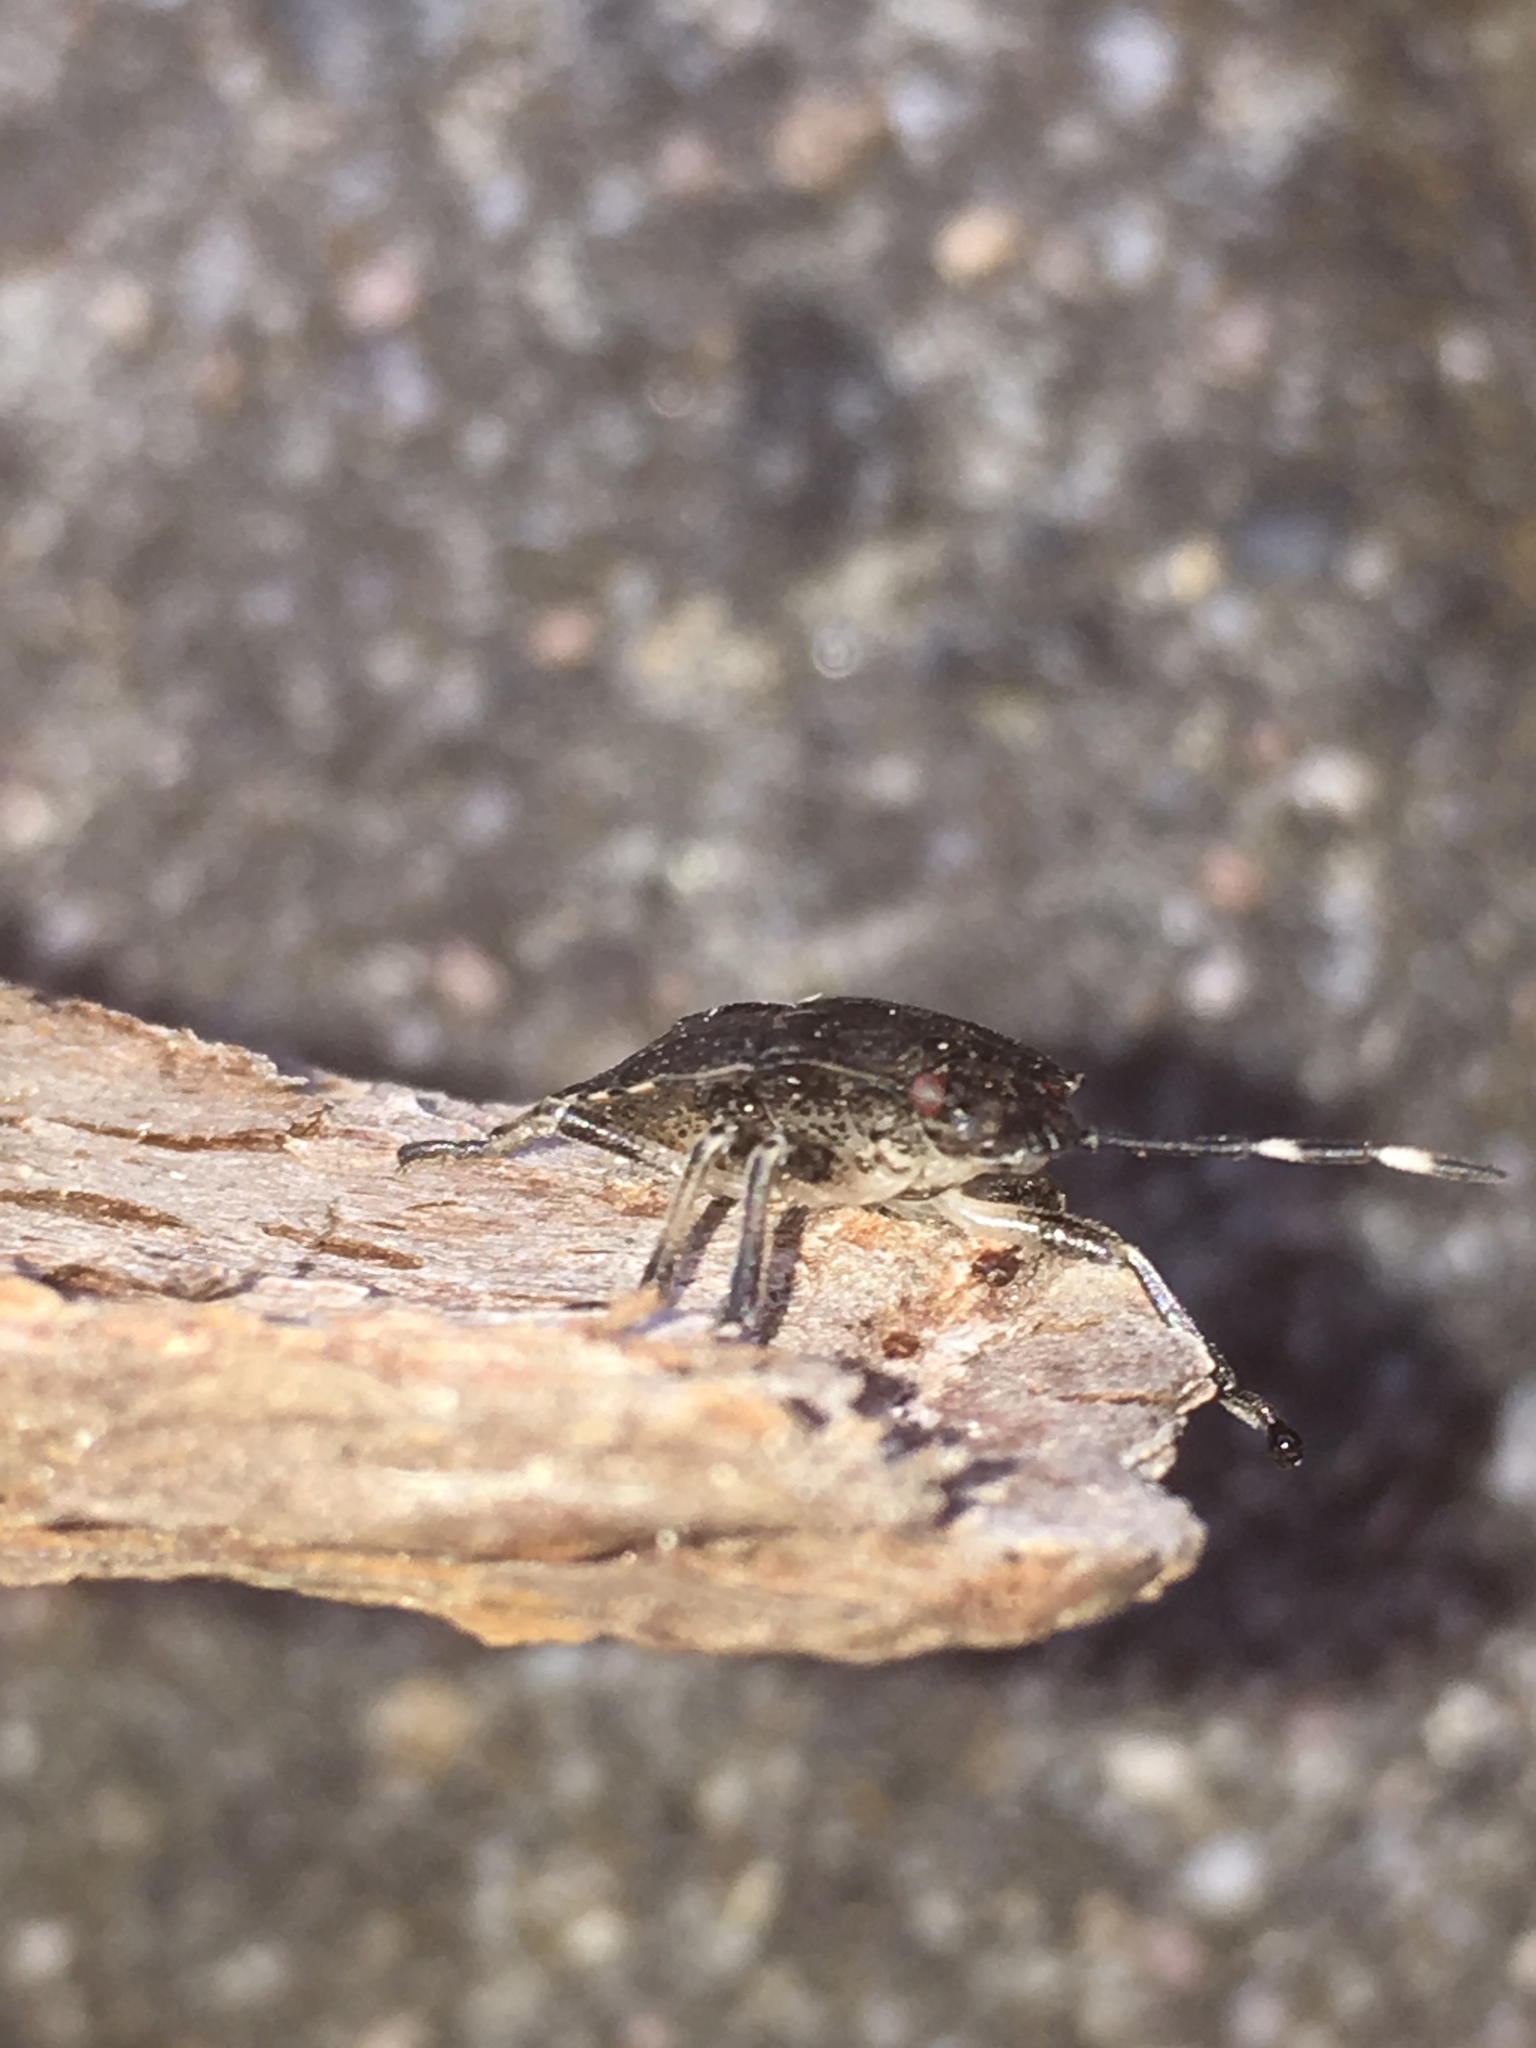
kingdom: Animalia
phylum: Arthropoda
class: Insecta
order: Hemiptera
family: Pentatomidae
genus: Rhaphigaster
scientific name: Rhaphigaster nebulosa
